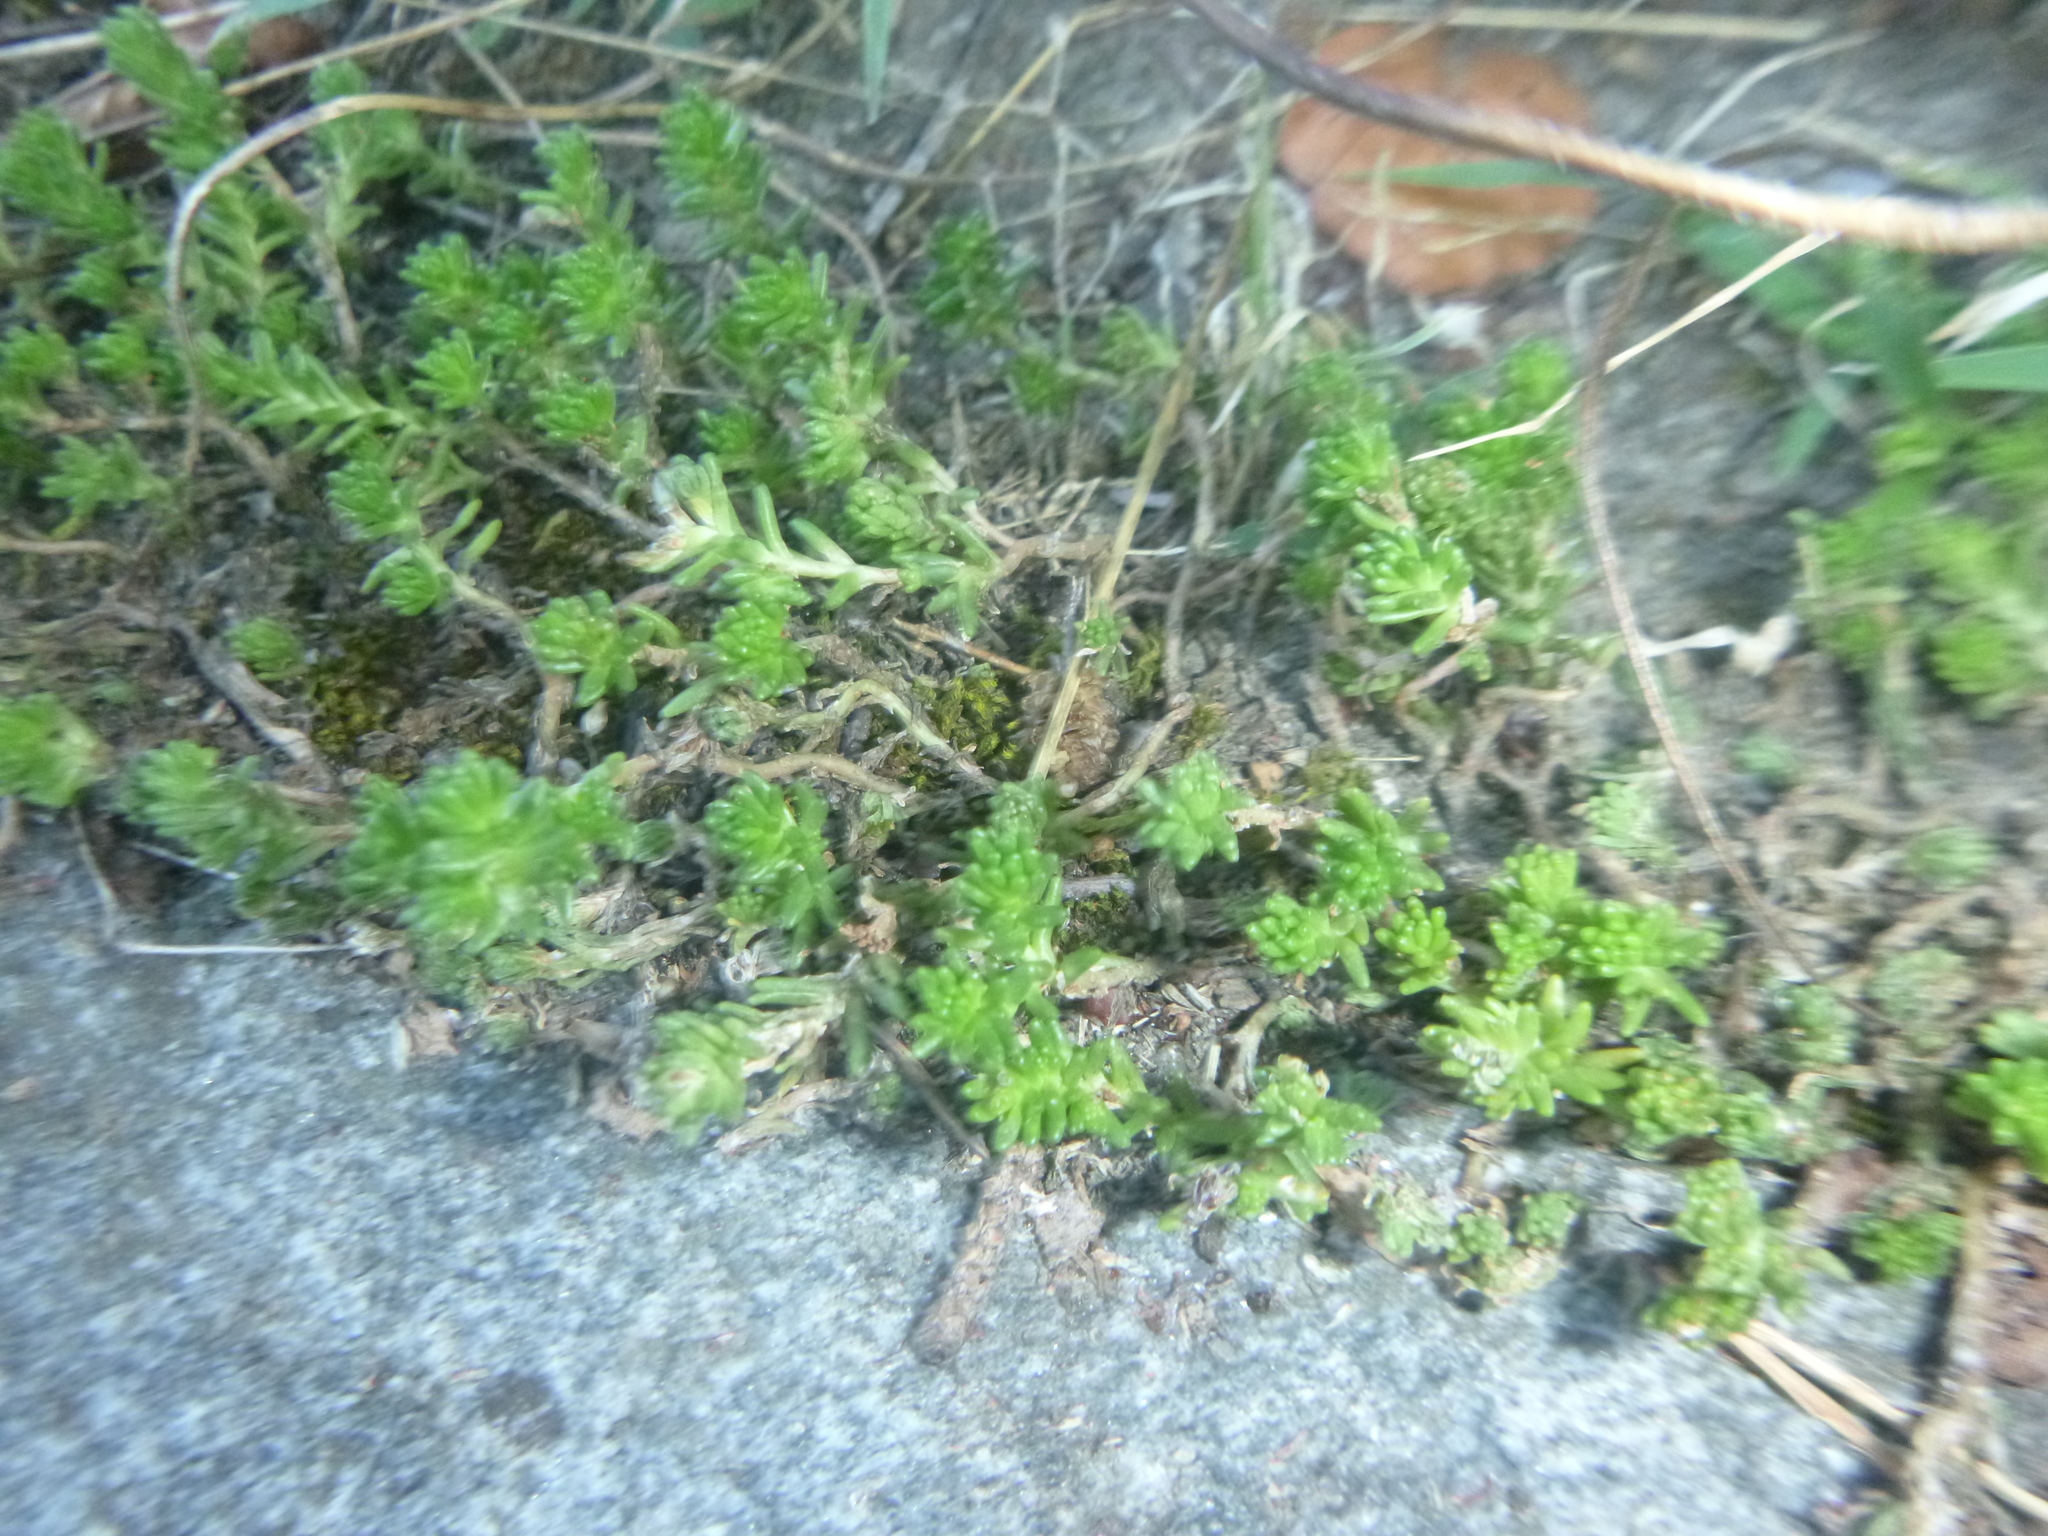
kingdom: Plantae
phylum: Tracheophyta
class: Magnoliopsida
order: Saxifragales
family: Crassulaceae
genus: Sedum
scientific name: Sedum sexangulare
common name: Tasteless stonecrop
